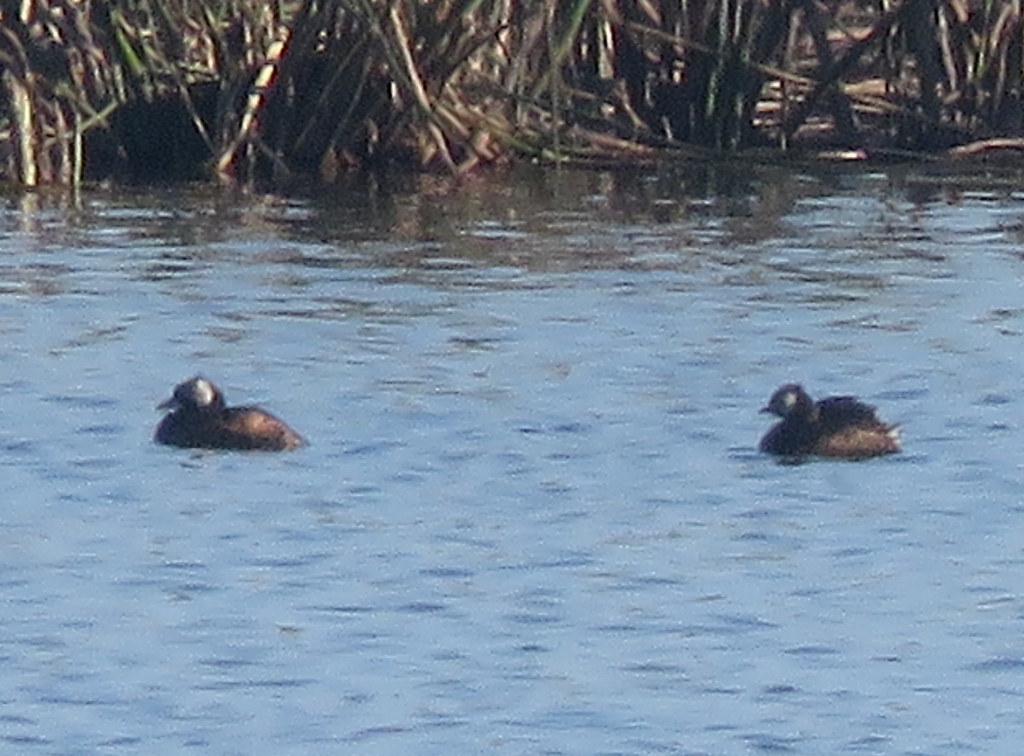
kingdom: Animalia
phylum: Chordata
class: Aves
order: Podicipediformes
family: Podicipedidae
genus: Rollandia
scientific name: Rollandia rolland
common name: White-tufted grebe
